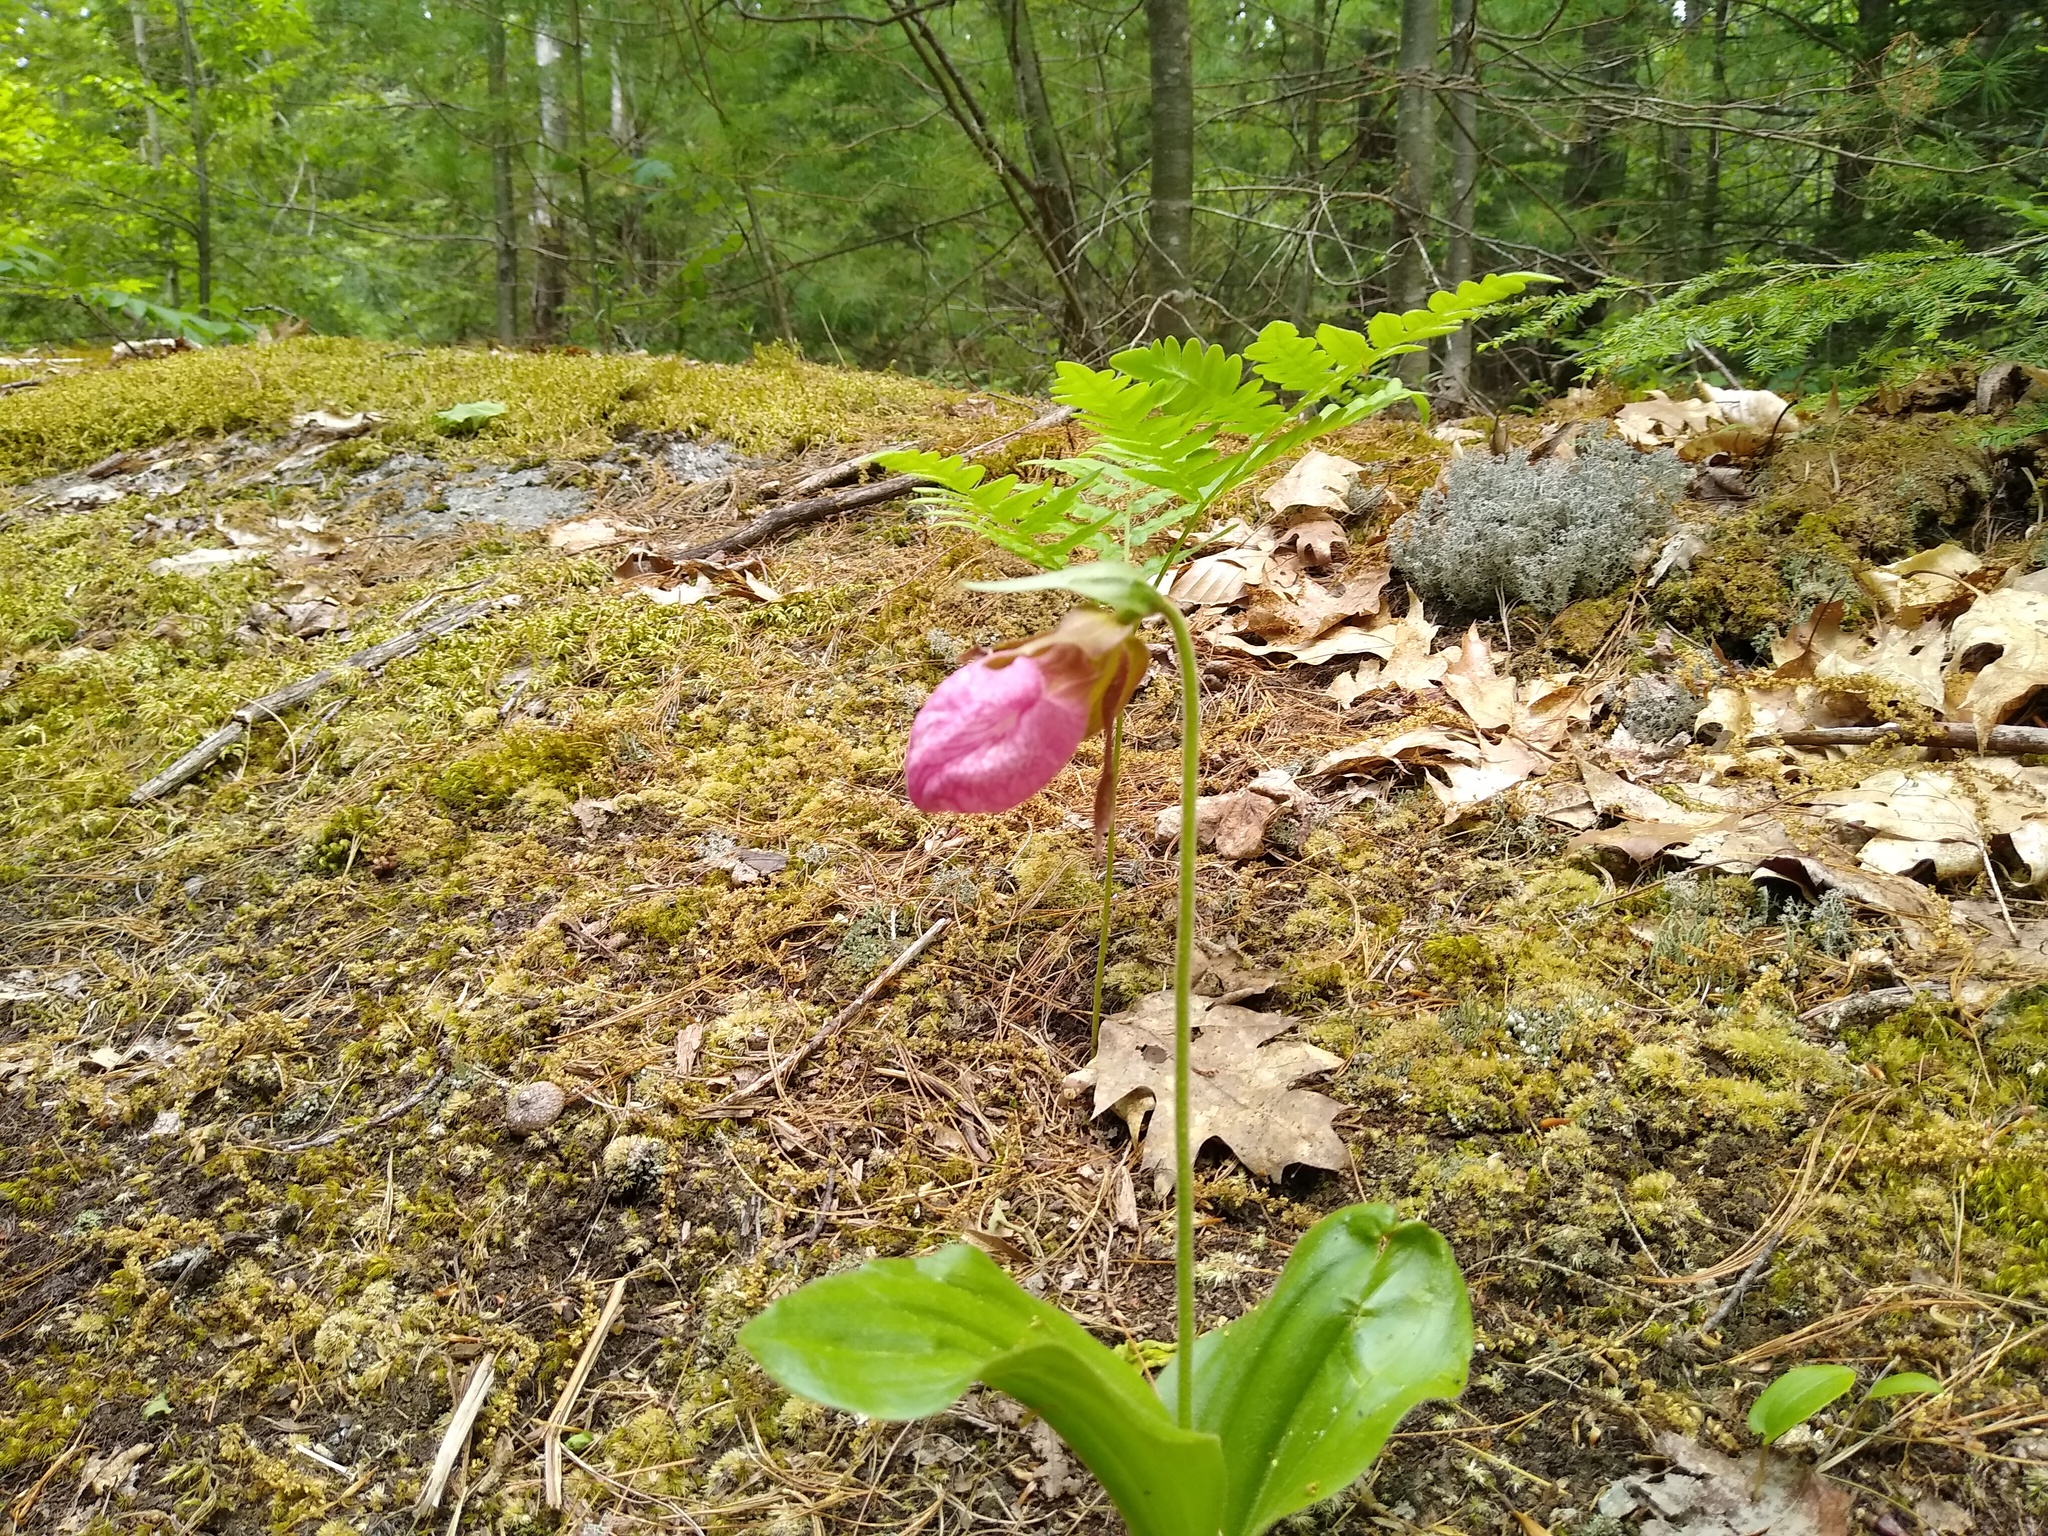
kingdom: Plantae
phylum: Tracheophyta
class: Liliopsida
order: Asparagales
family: Orchidaceae
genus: Cypripedium
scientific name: Cypripedium acaule
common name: Pink lady's-slipper
